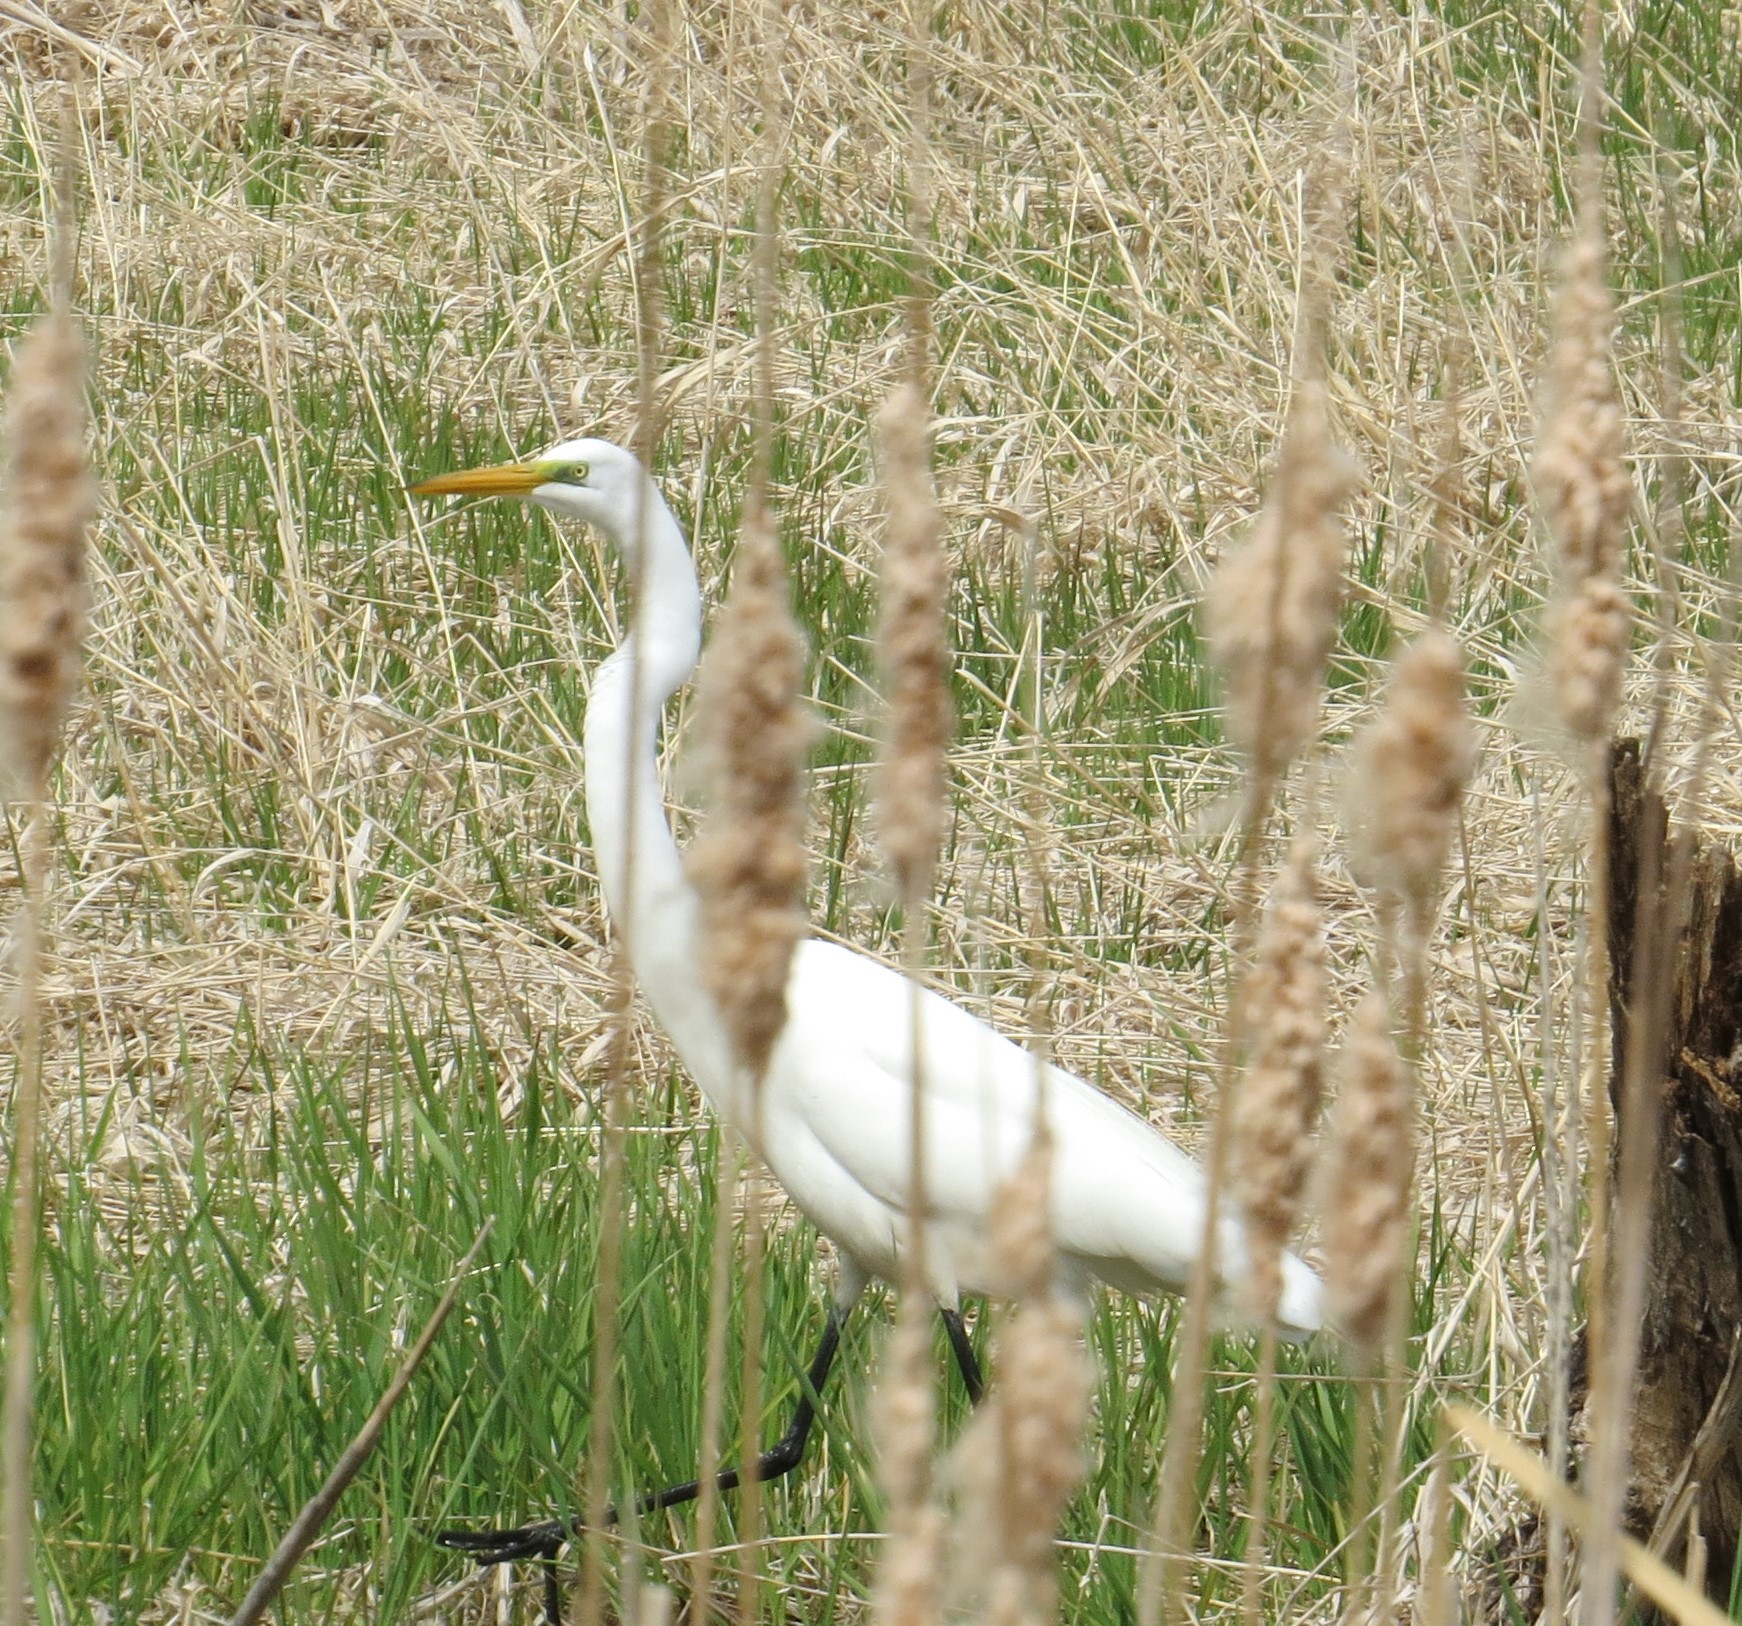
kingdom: Animalia
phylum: Chordata
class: Aves
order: Pelecaniformes
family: Ardeidae
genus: Ardea
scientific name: Ardea alba
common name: Great egret
